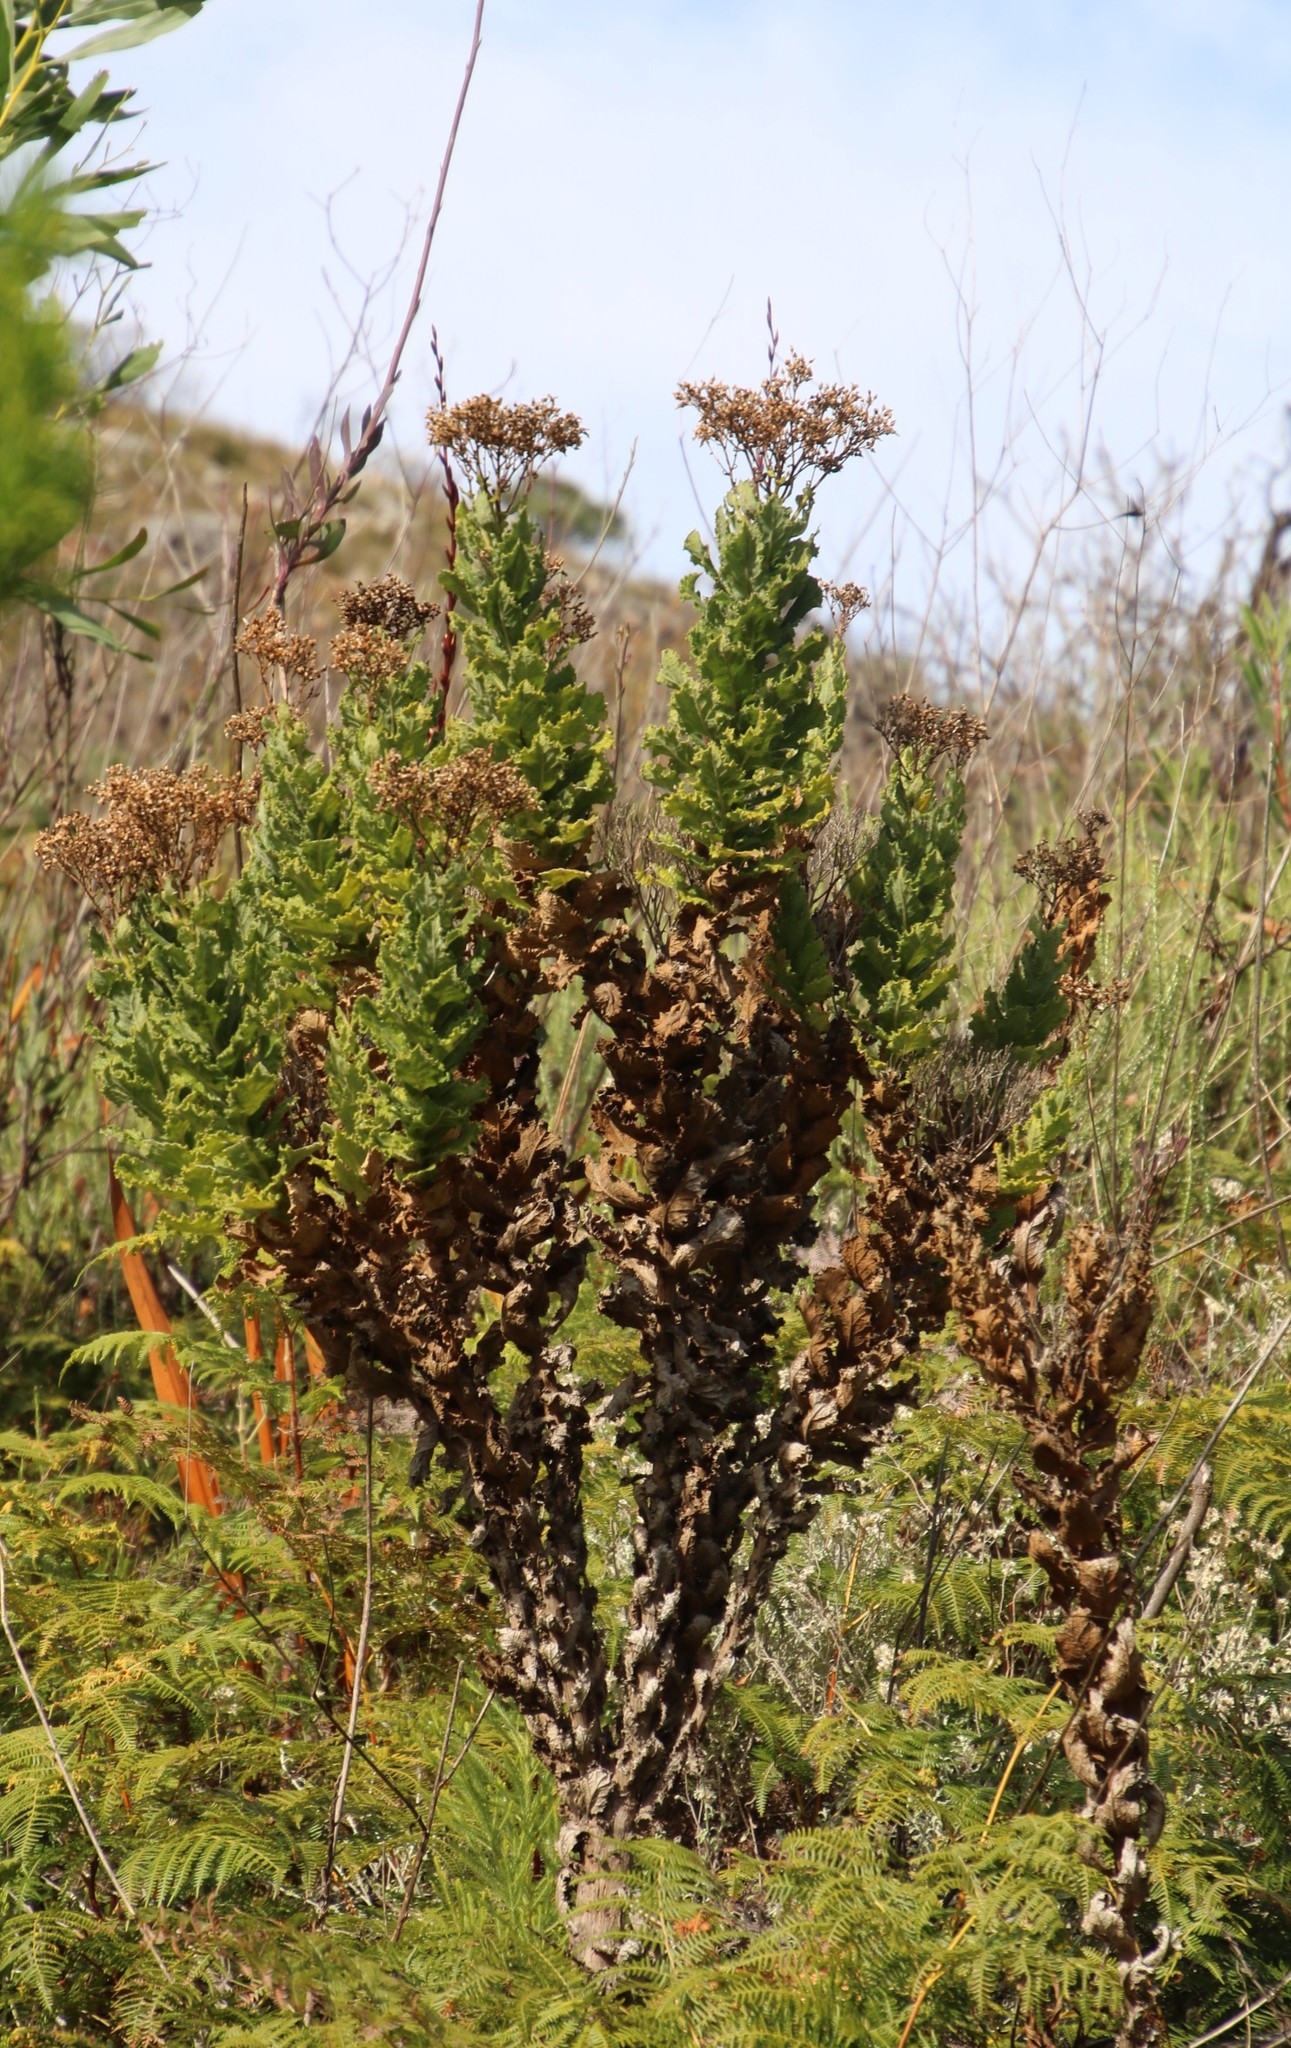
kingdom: Plantae
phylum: Tracheophyta
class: Magnoliopsida
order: Asterales
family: Asteraceae
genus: Senecio
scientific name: Senecio rigidus
